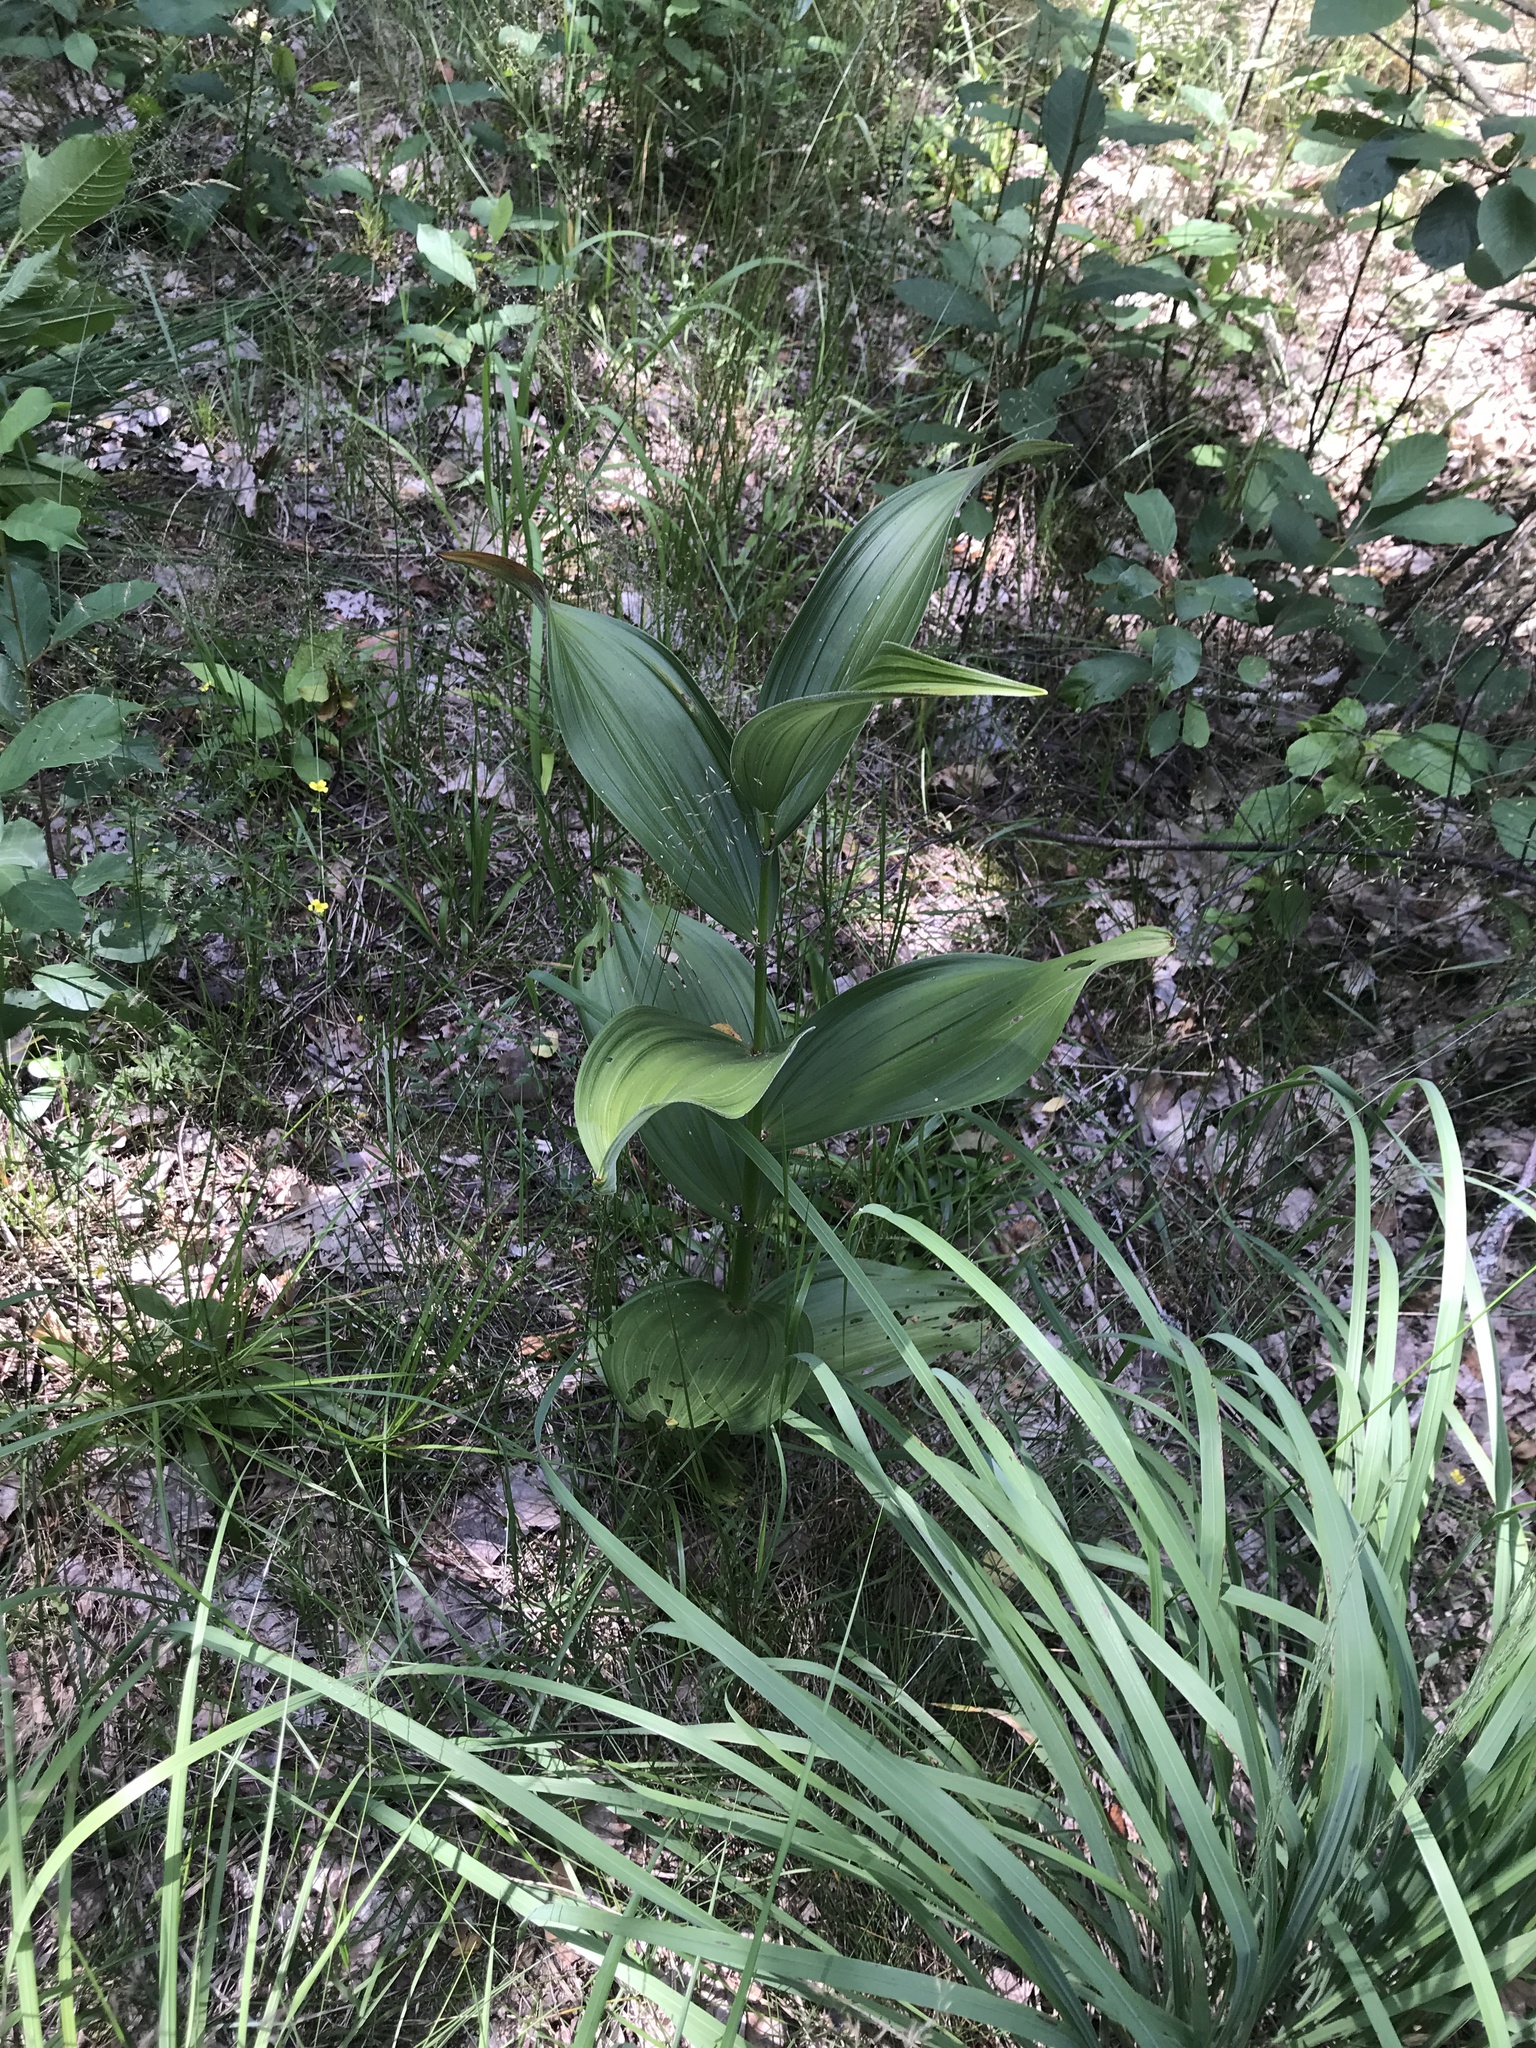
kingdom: Plantae
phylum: Tracheophyta
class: Liliopsida
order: Liliales
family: Melanthiaceae
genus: Veratrum
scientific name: Veratrum lobelianum
